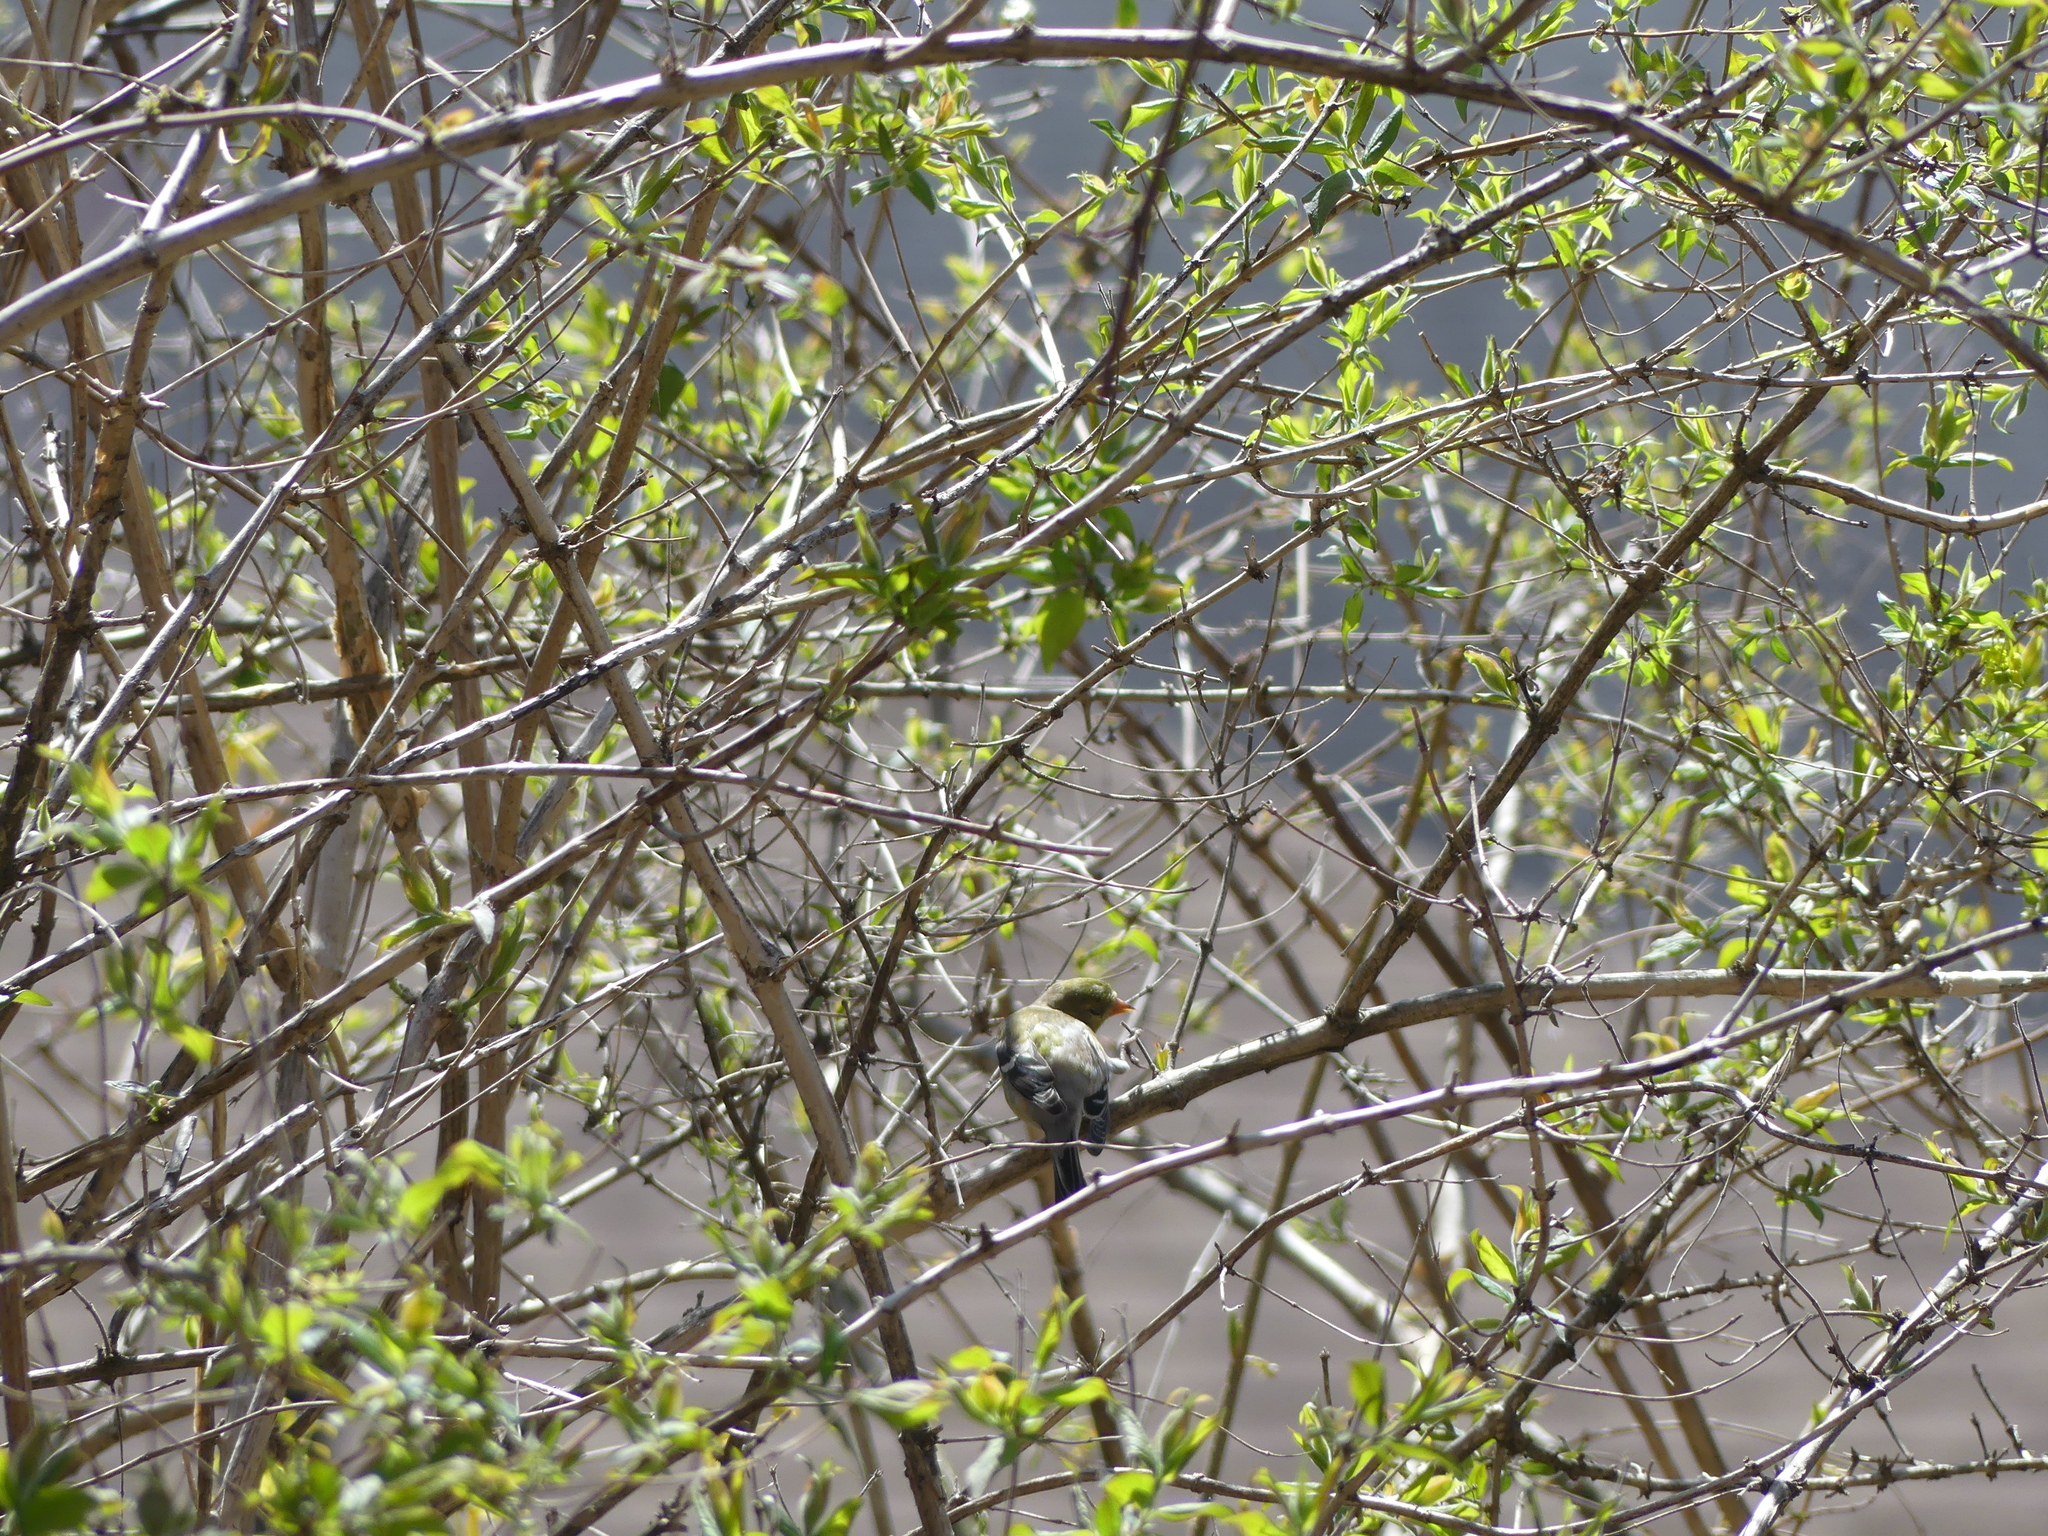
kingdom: Animalia
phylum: Chordata
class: Aves
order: Passeriformes
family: Fringillidae
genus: Spinus
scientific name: Spinus tristis
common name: American goldfinch
